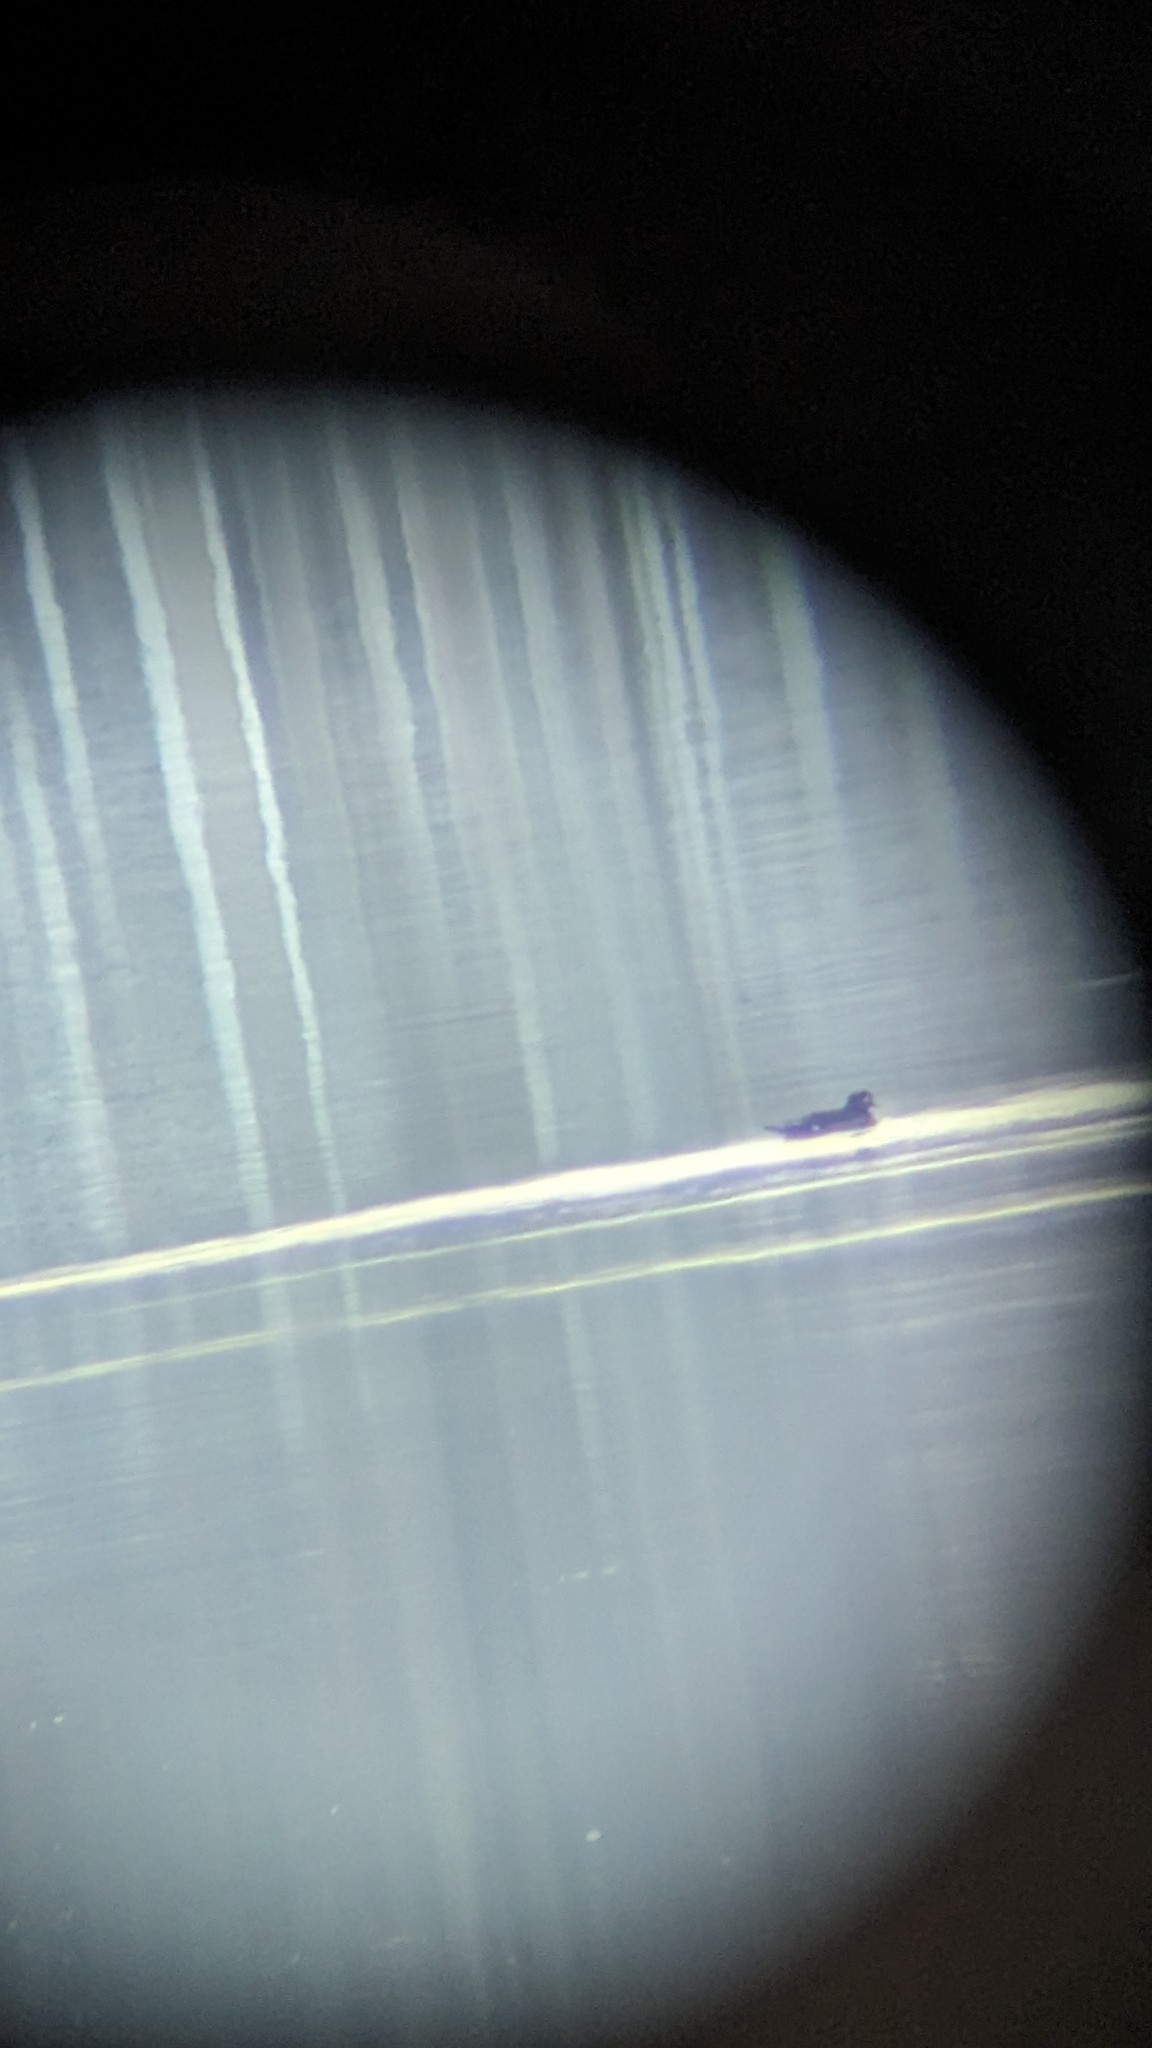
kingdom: Animalia
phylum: Chordata
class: Aves
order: Anseriformes
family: Anatidae
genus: Aix
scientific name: Aix sponsa
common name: Wood duck
